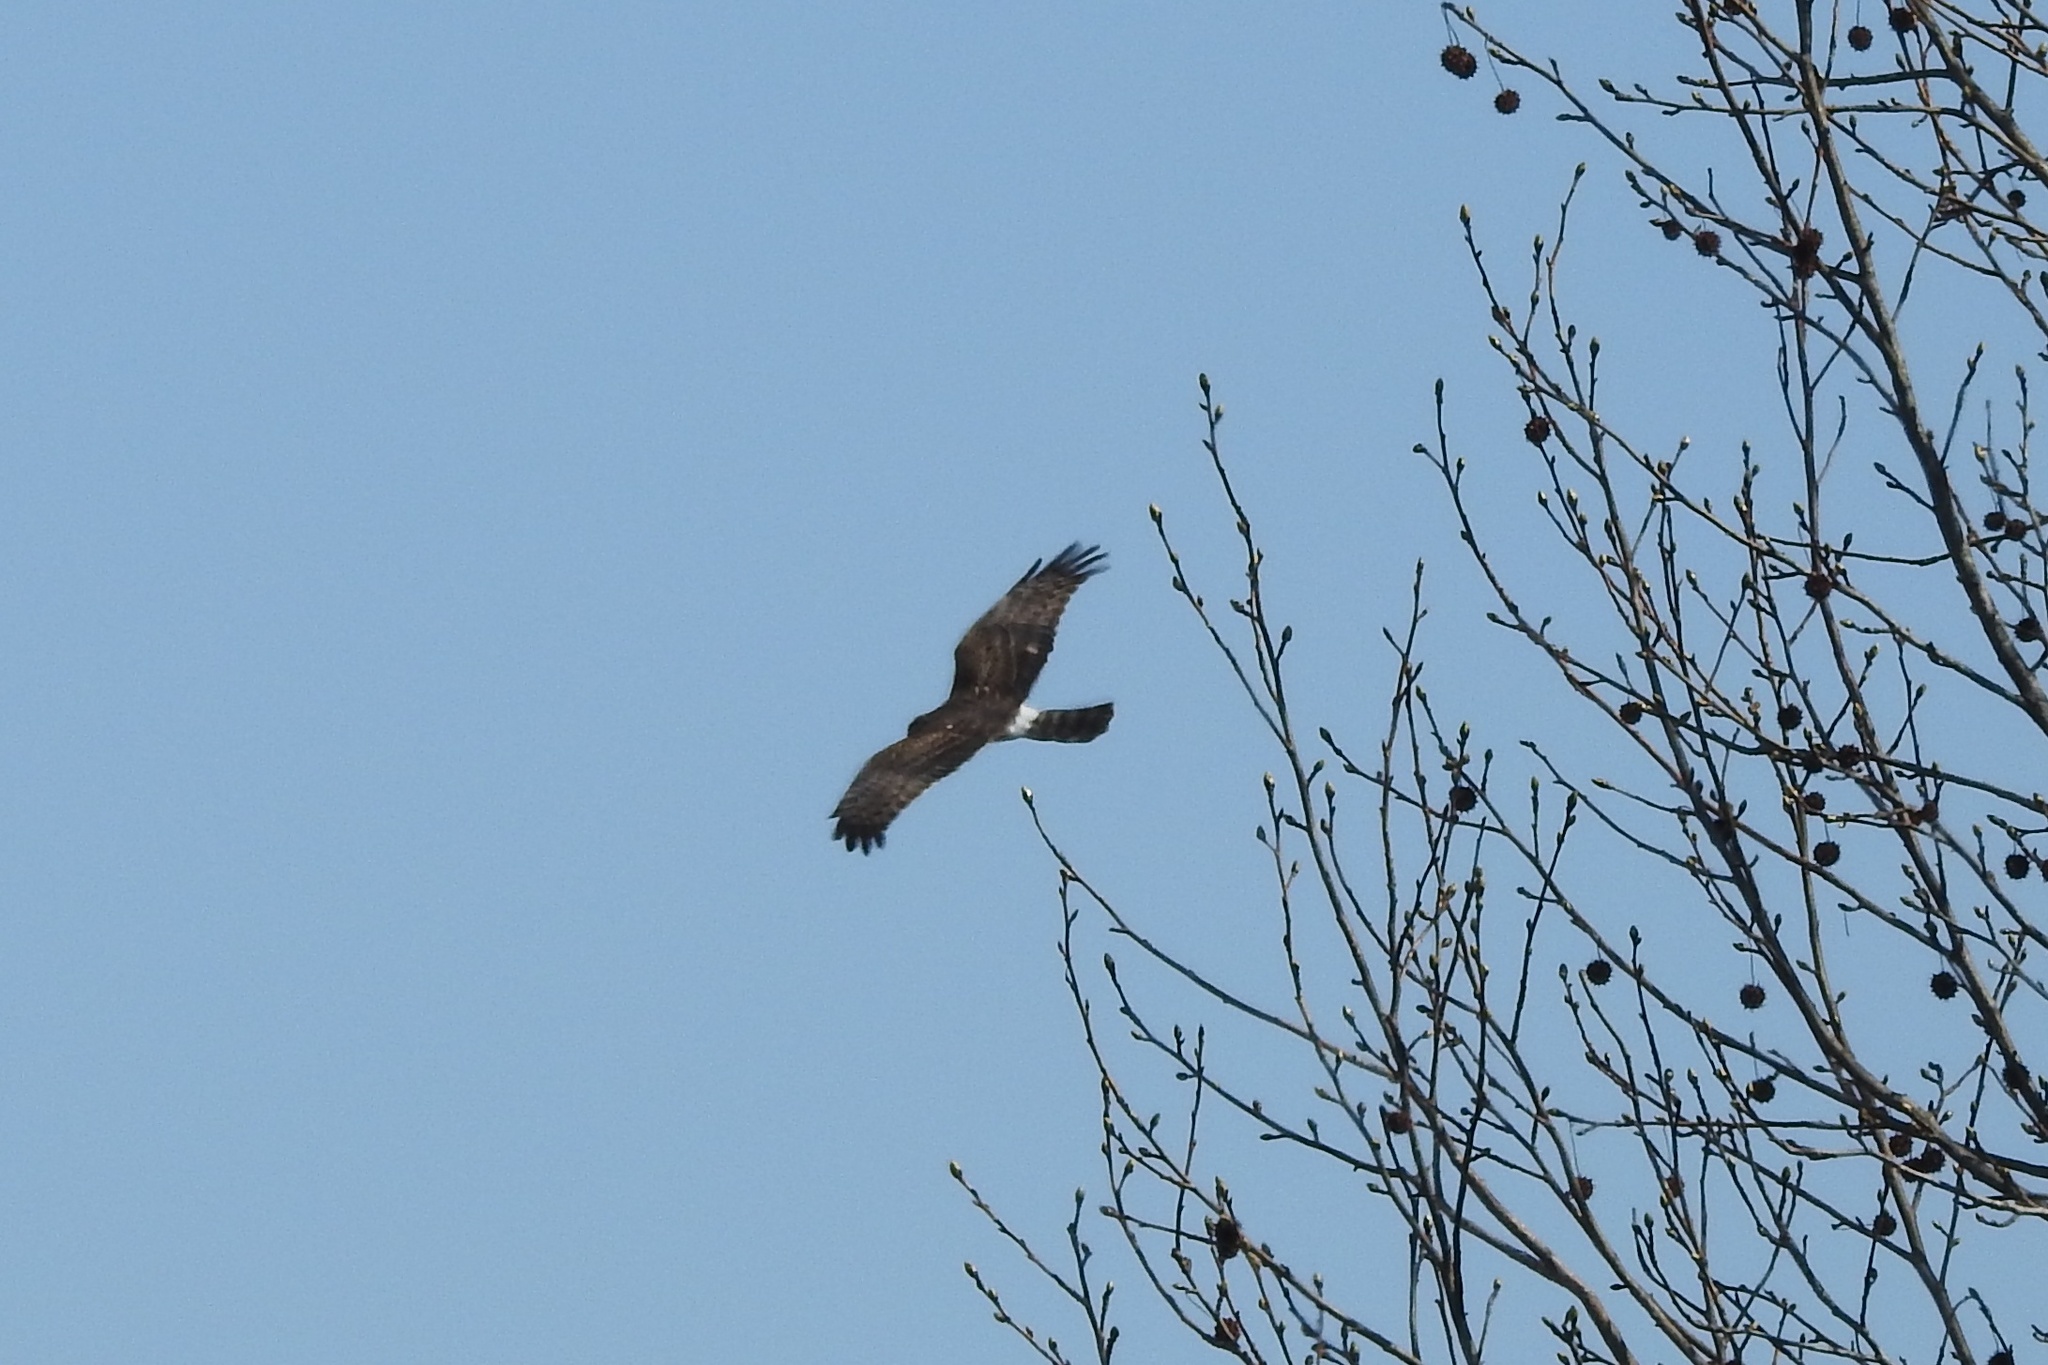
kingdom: Animalia
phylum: Chordata
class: Aves
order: Accipitriformes
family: Accipitridae
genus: Circus
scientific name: Circus cyaneus
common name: Hen harrier
